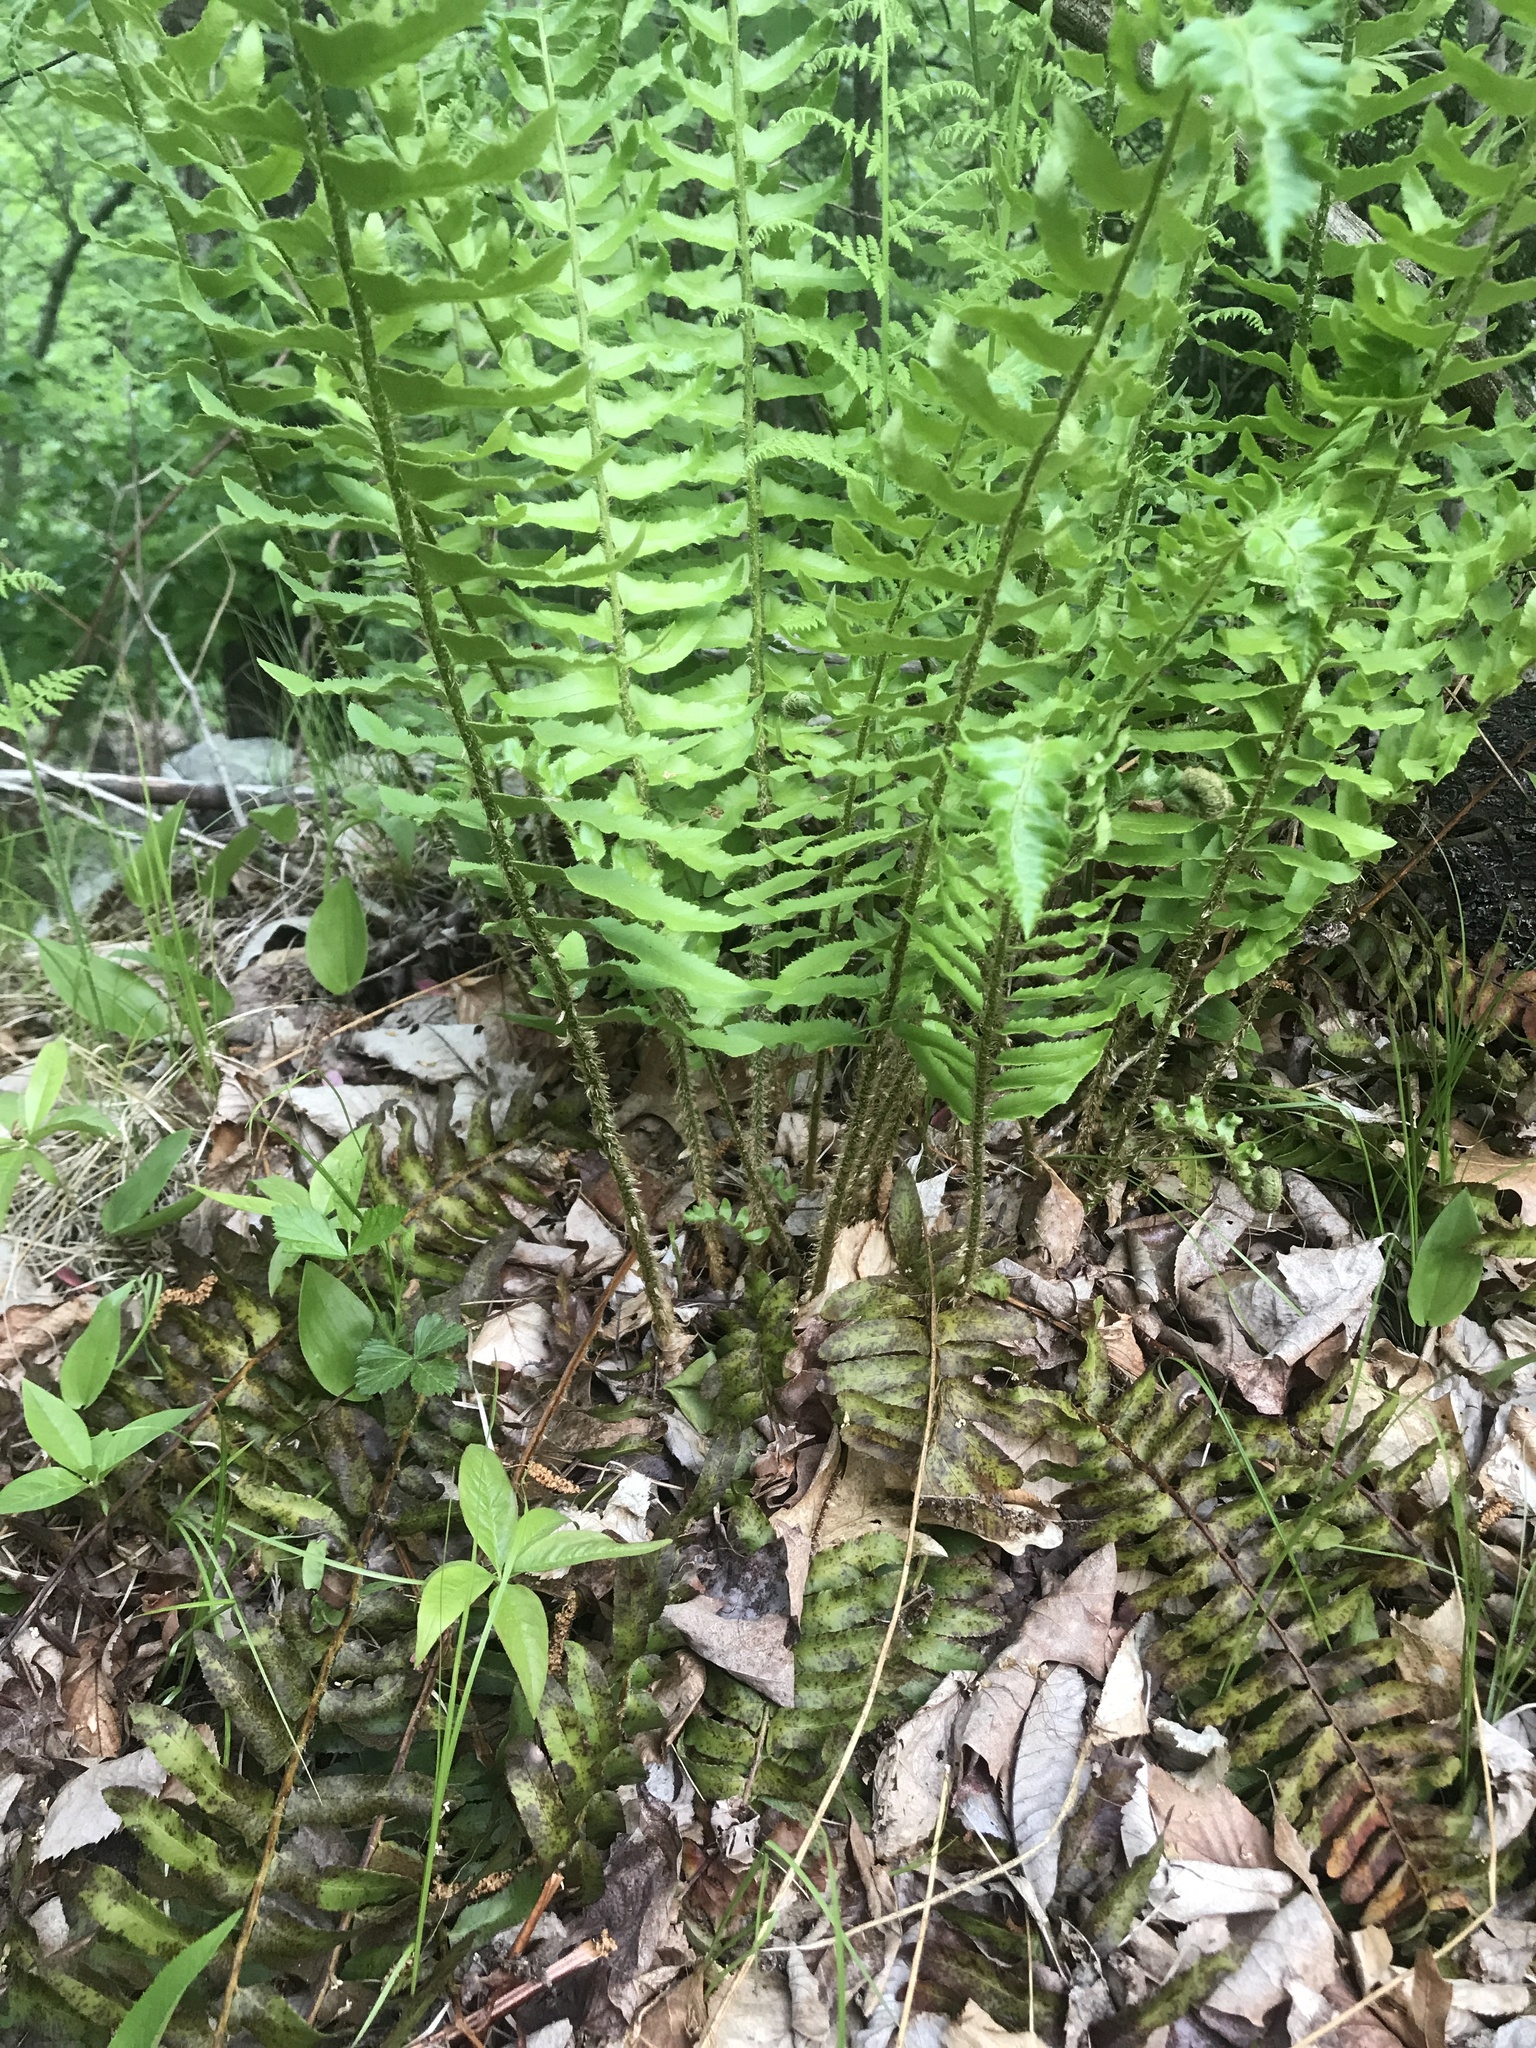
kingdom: Plantae
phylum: Tracheophyta
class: Polypodiopsida
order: Polypodiales
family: Dryopteridaceae
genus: Polystichum
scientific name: Polystichum acrostichoides
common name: Christmas fern
